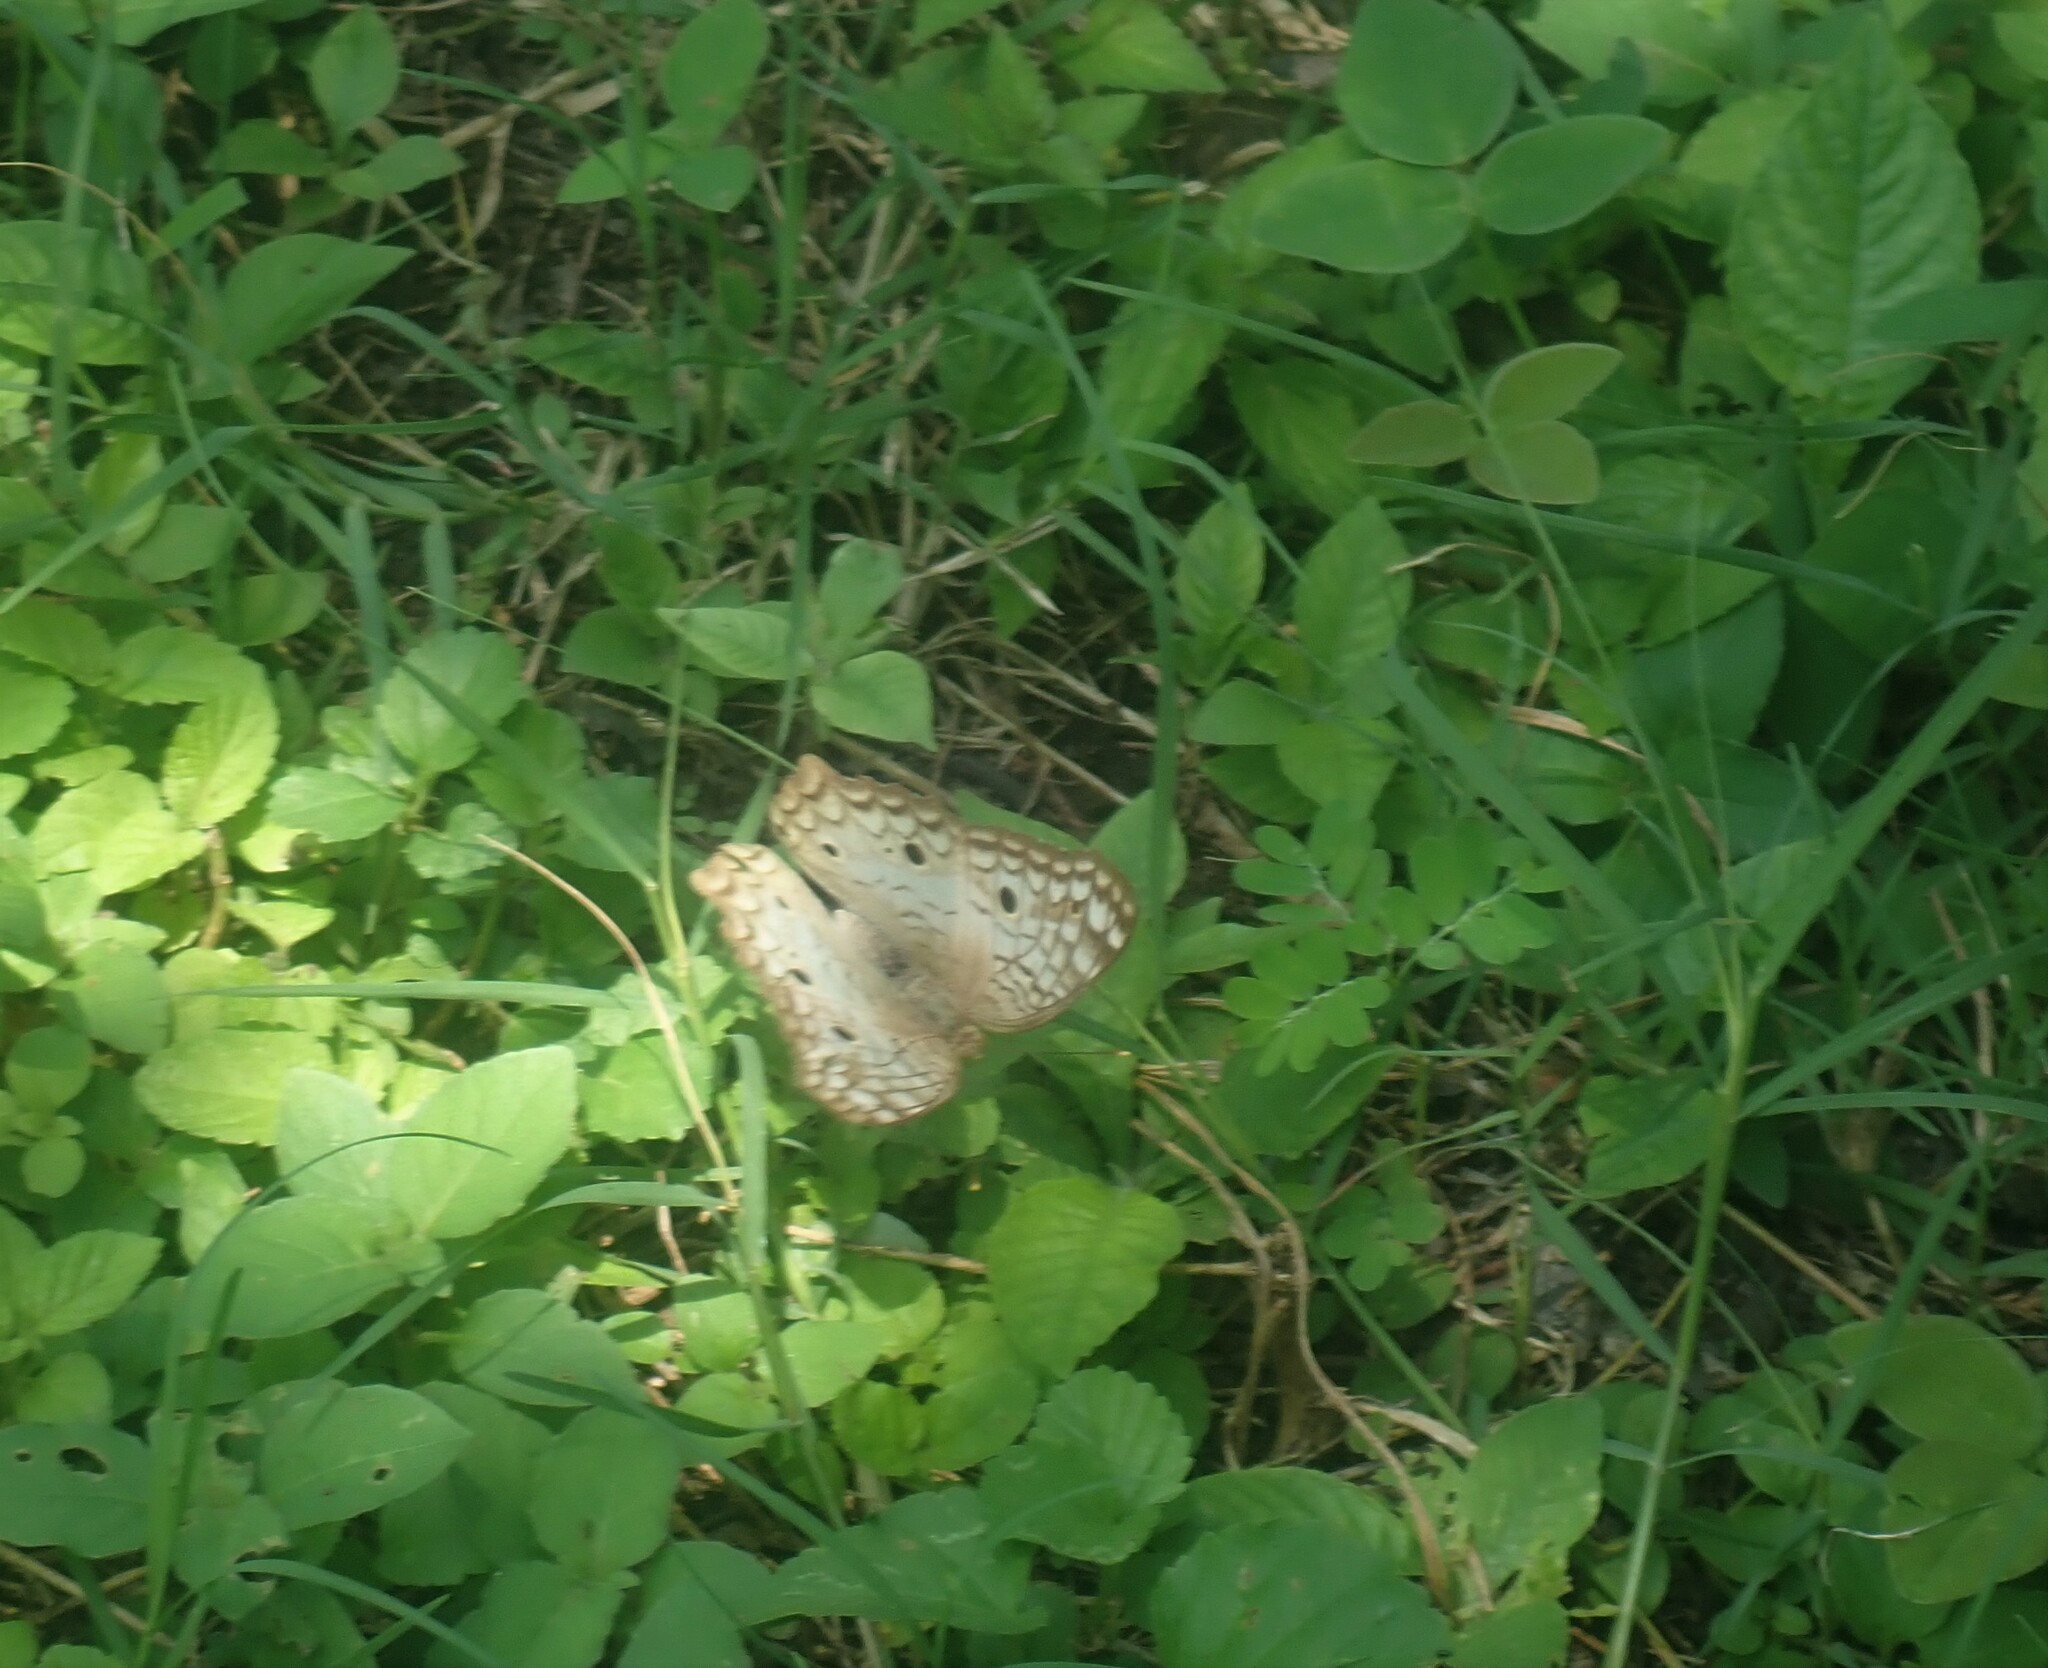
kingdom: Animalia
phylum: Arthropoda
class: Insecta
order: Lepidoptera
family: Nymphalidae
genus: Anartia
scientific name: Anartia jatrophae
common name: White peacock
